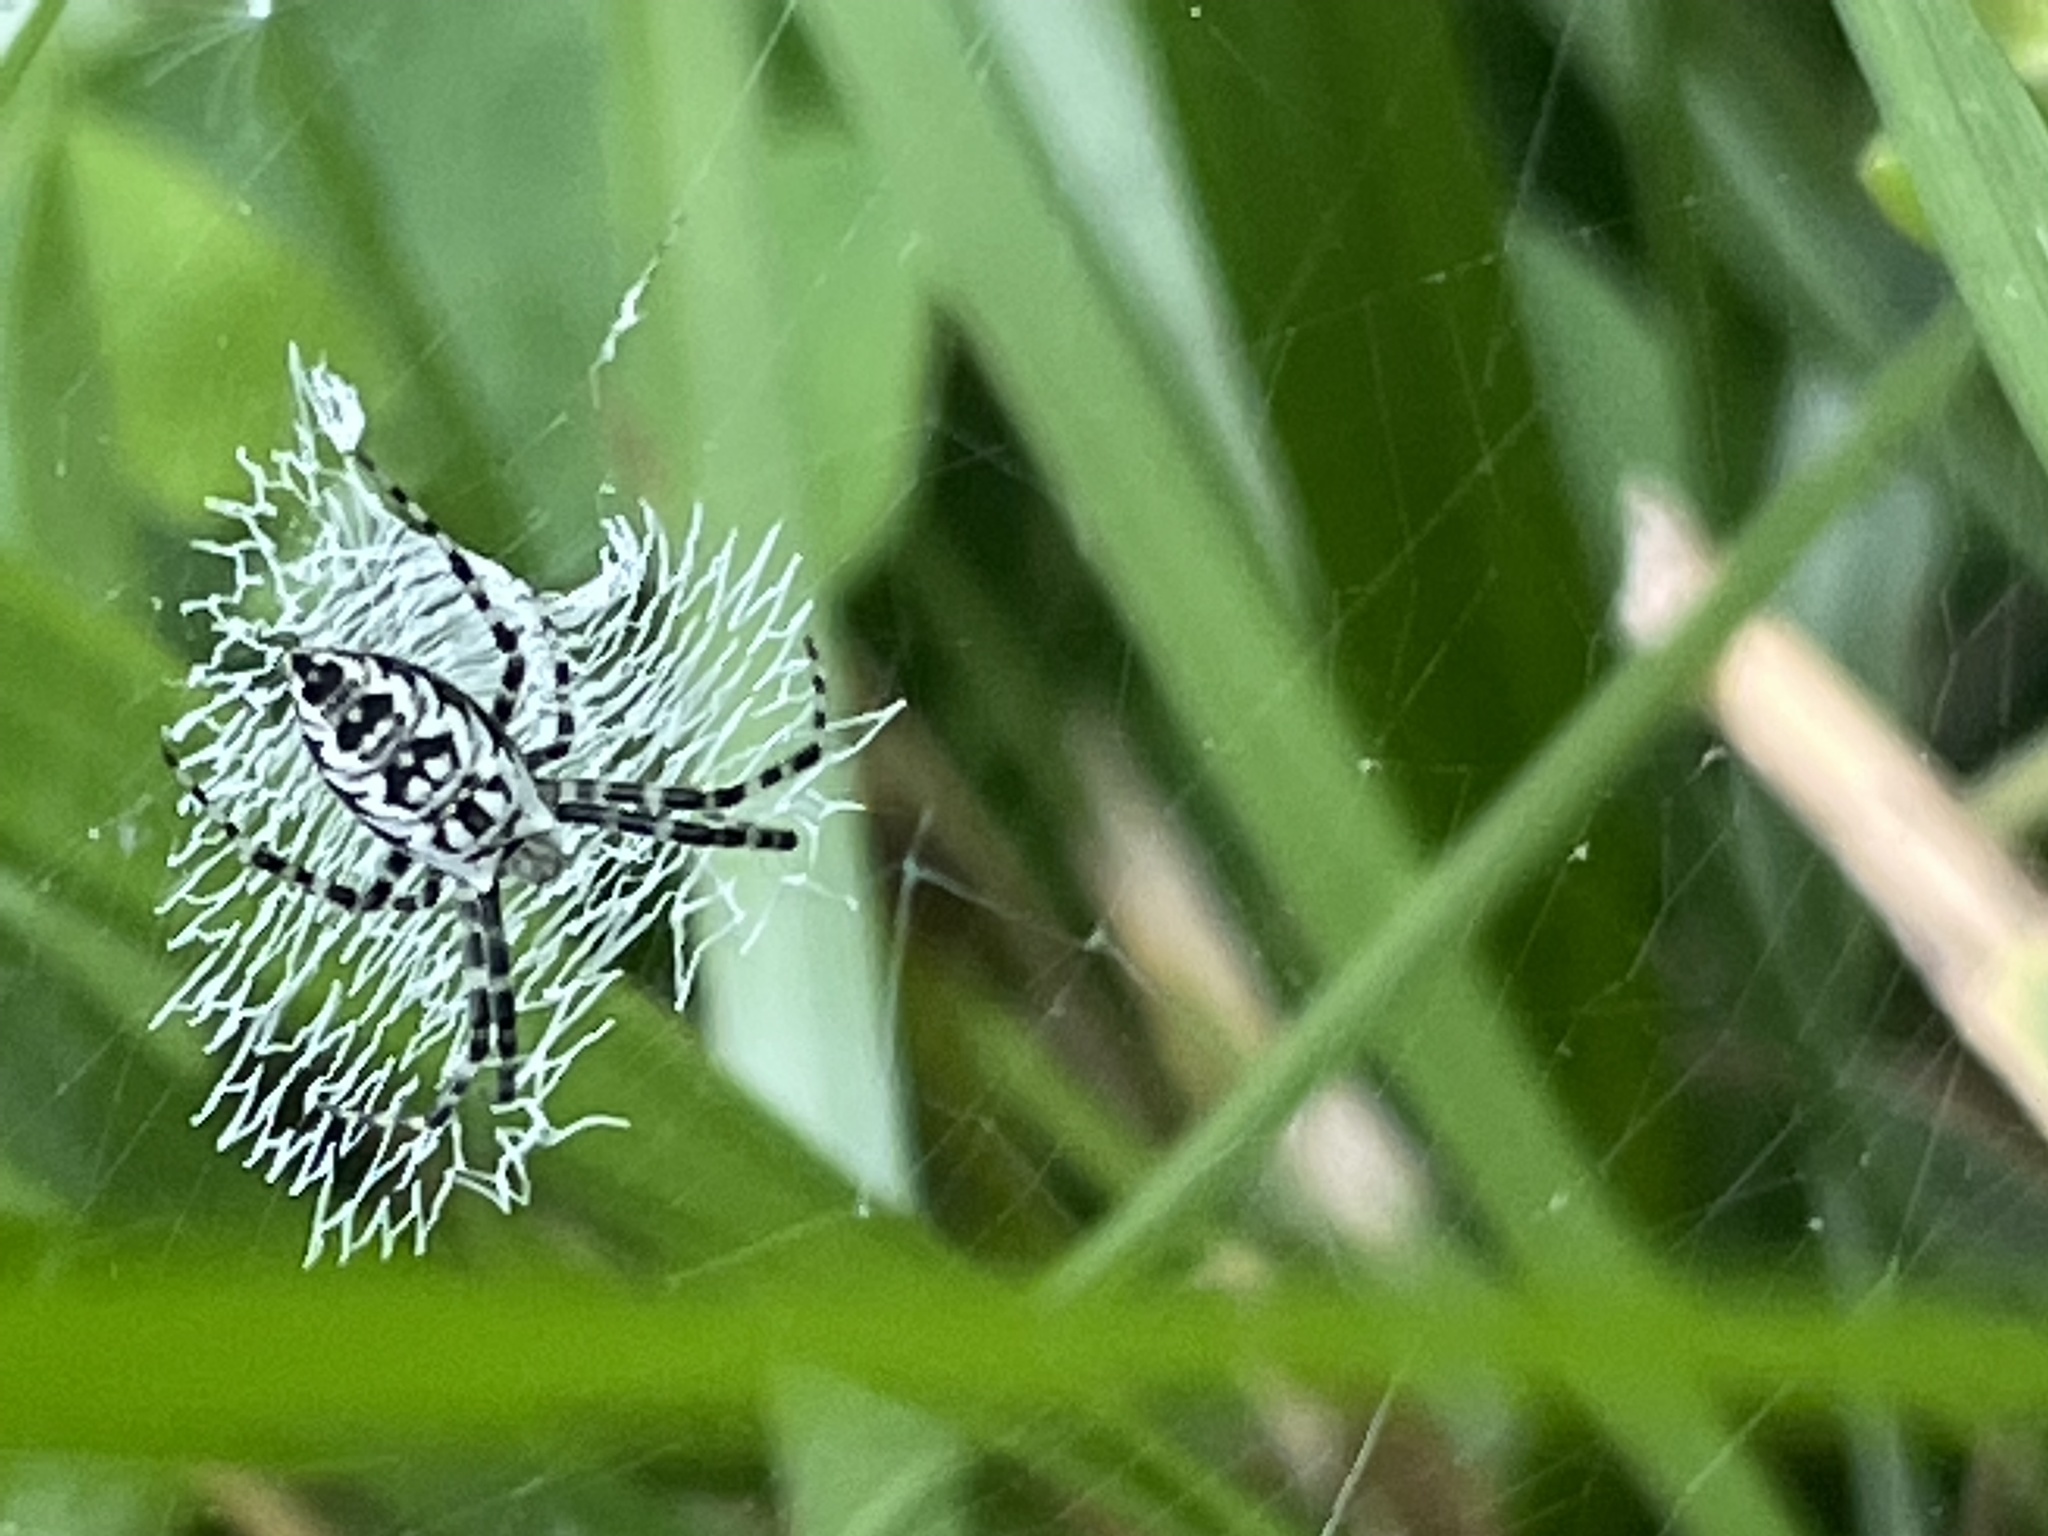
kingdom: Animalia
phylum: Arthropoda
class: Arachnida
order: Araneae
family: Araneidae
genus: Argiope
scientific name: Argiope aurantia
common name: Orb weavers
